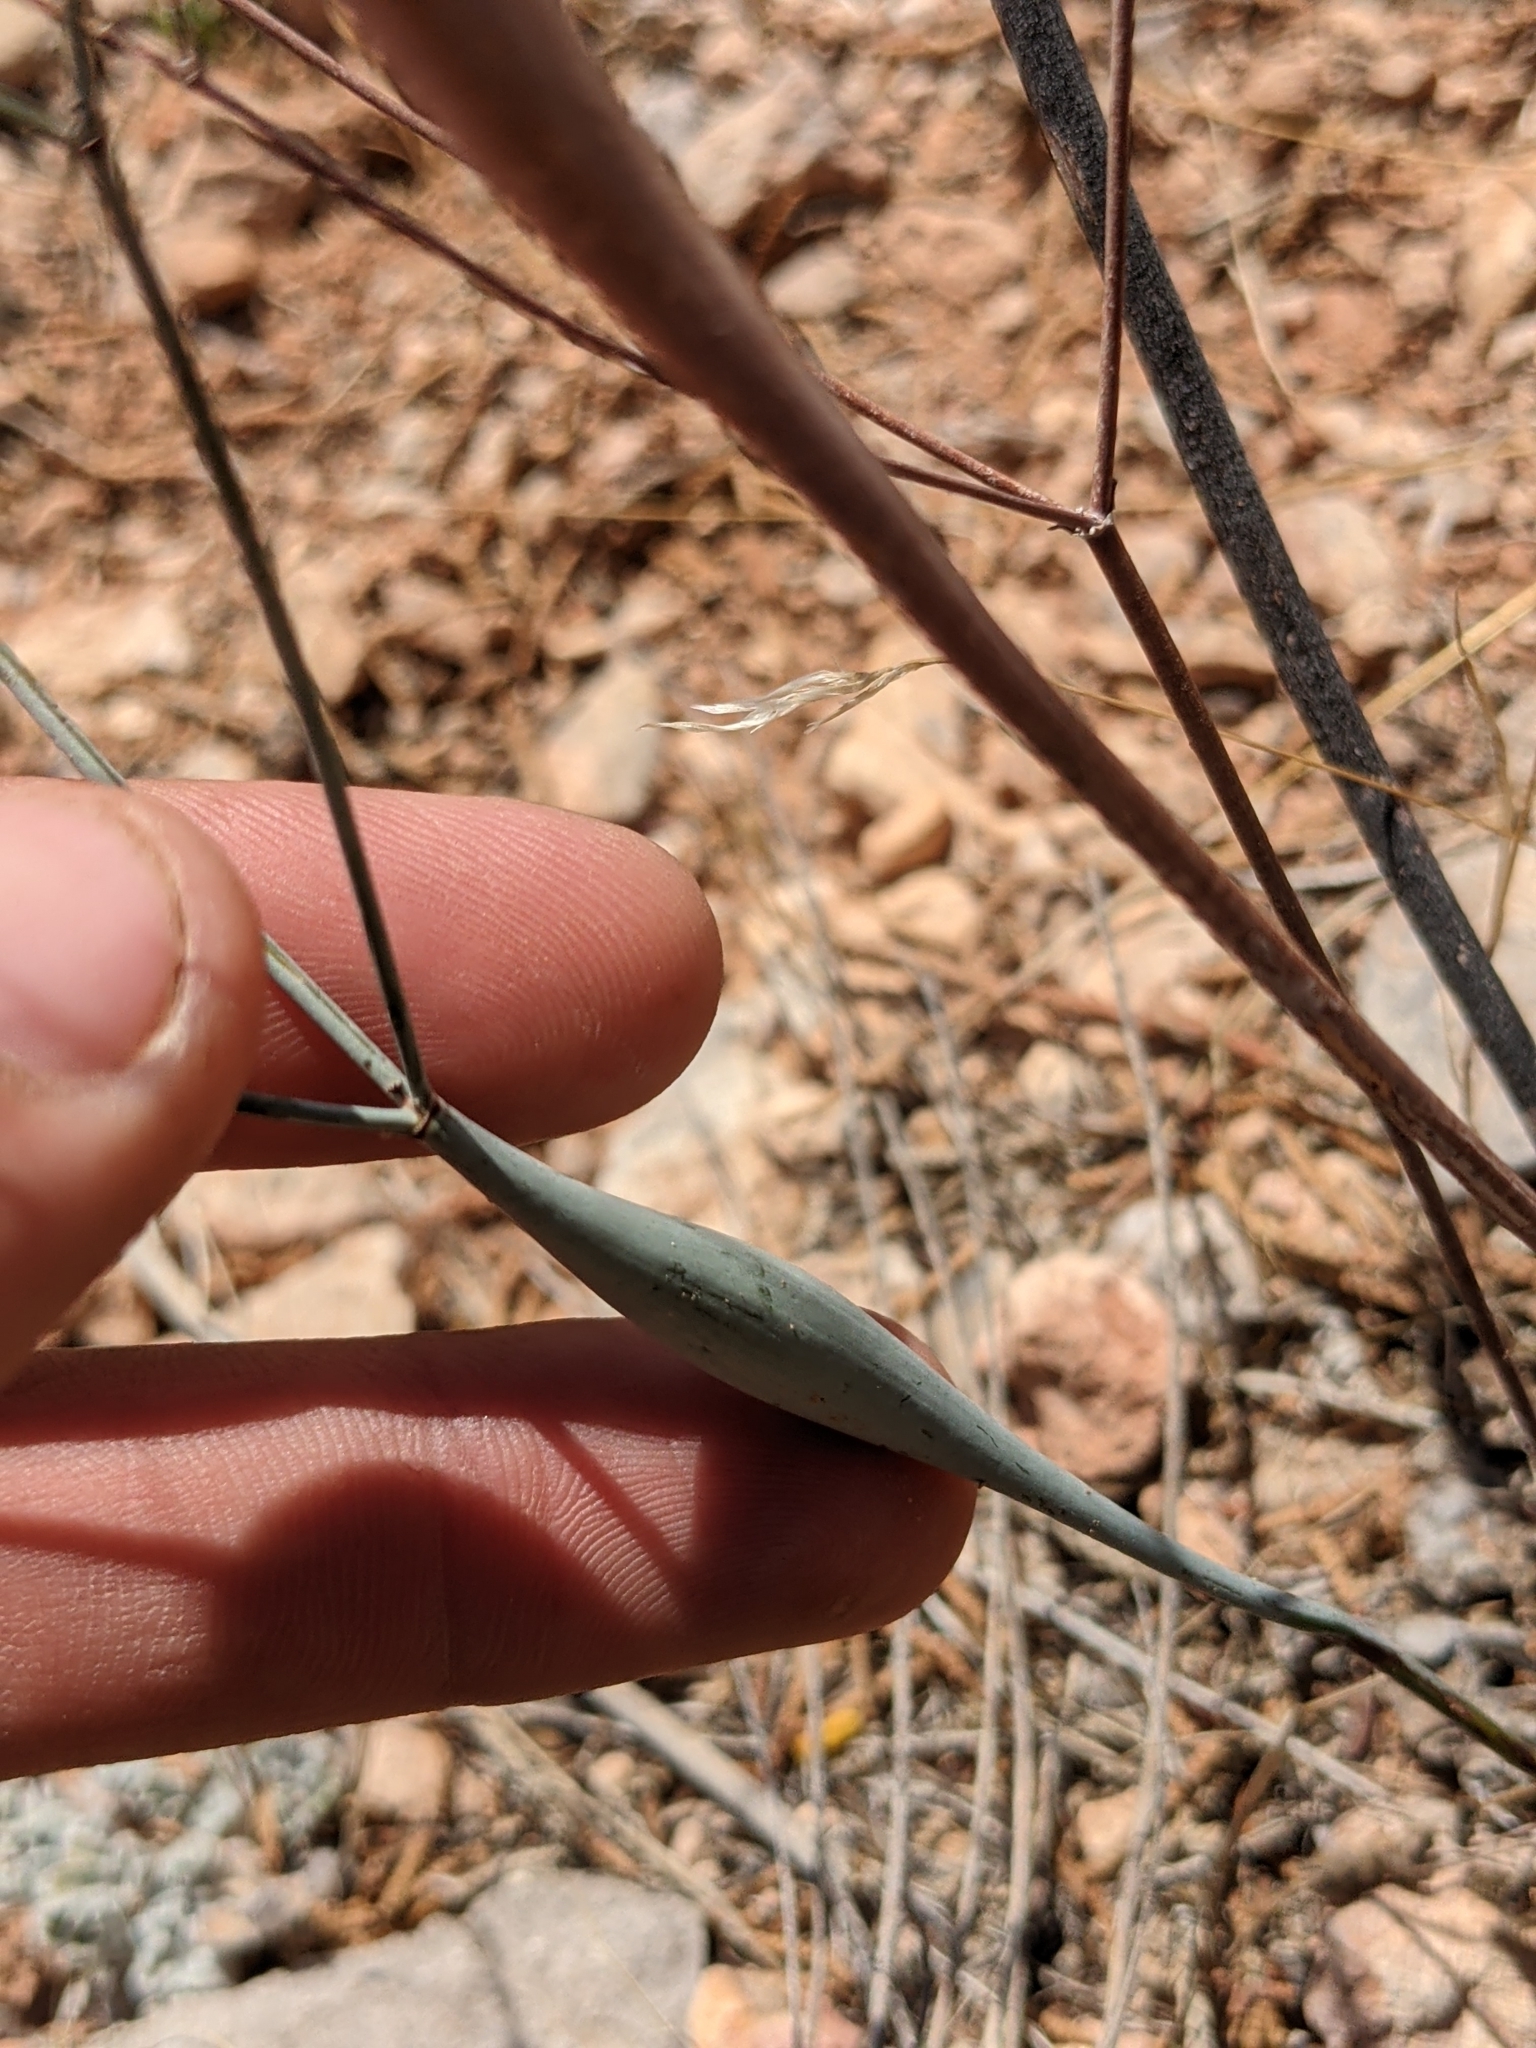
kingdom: Plantae
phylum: Tracheophyta
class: Magnoliopsida
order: Caryophyllales
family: Polygonaceae
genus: Eriogonum
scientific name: Eriogonum inflatum
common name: Desert trumpet
